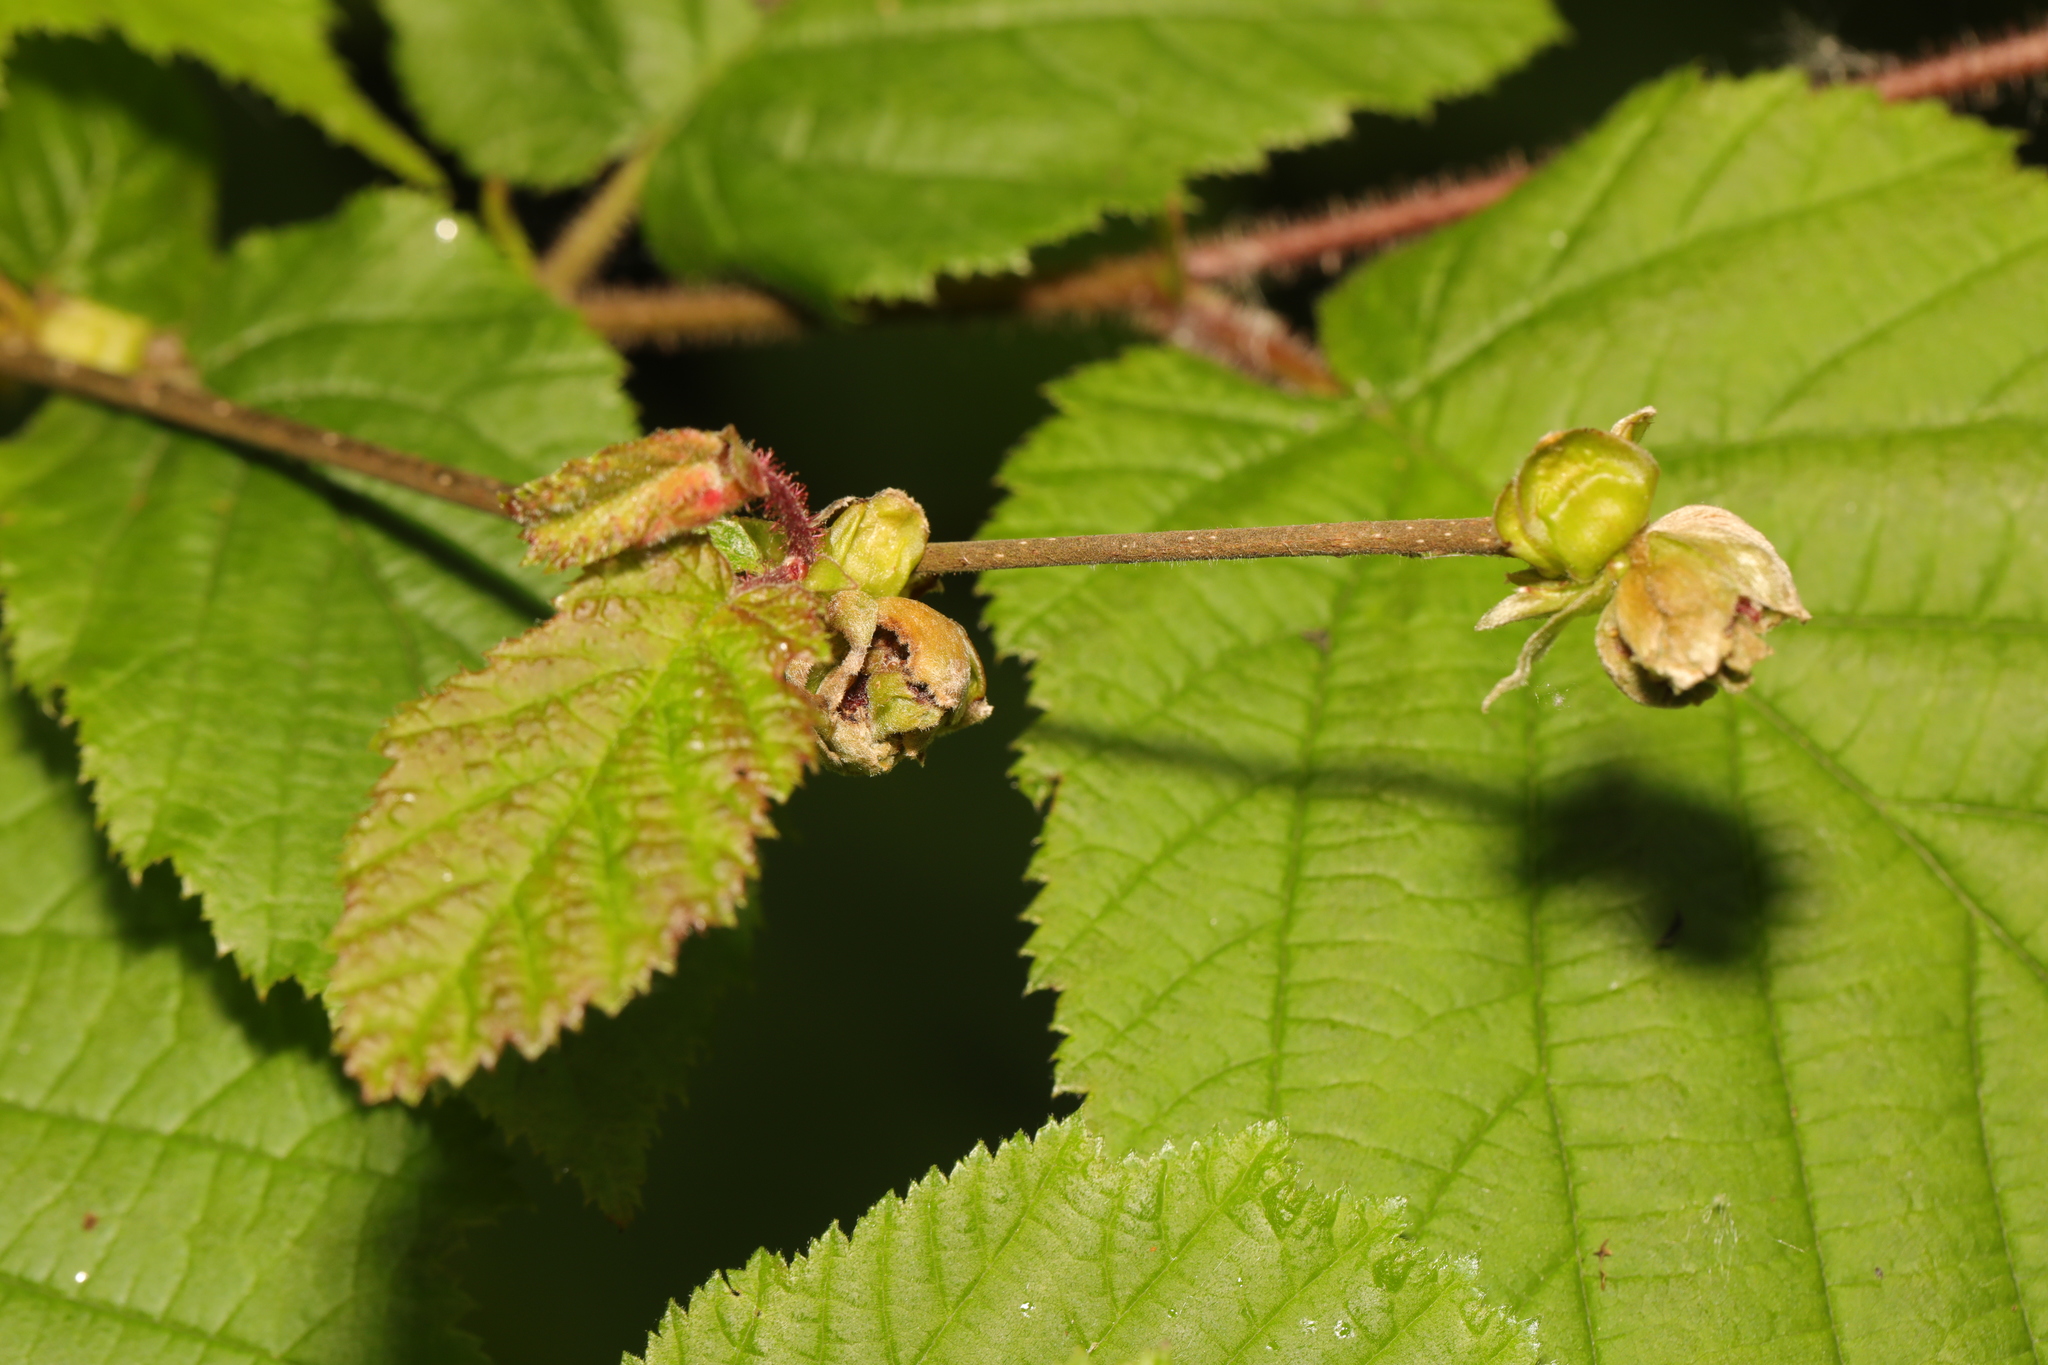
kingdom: Animalia
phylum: Arthropoda
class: Arachnida
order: Trombidiformes
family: Phytoptidae
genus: Phytoptus
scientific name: Phytoptus avellanae
